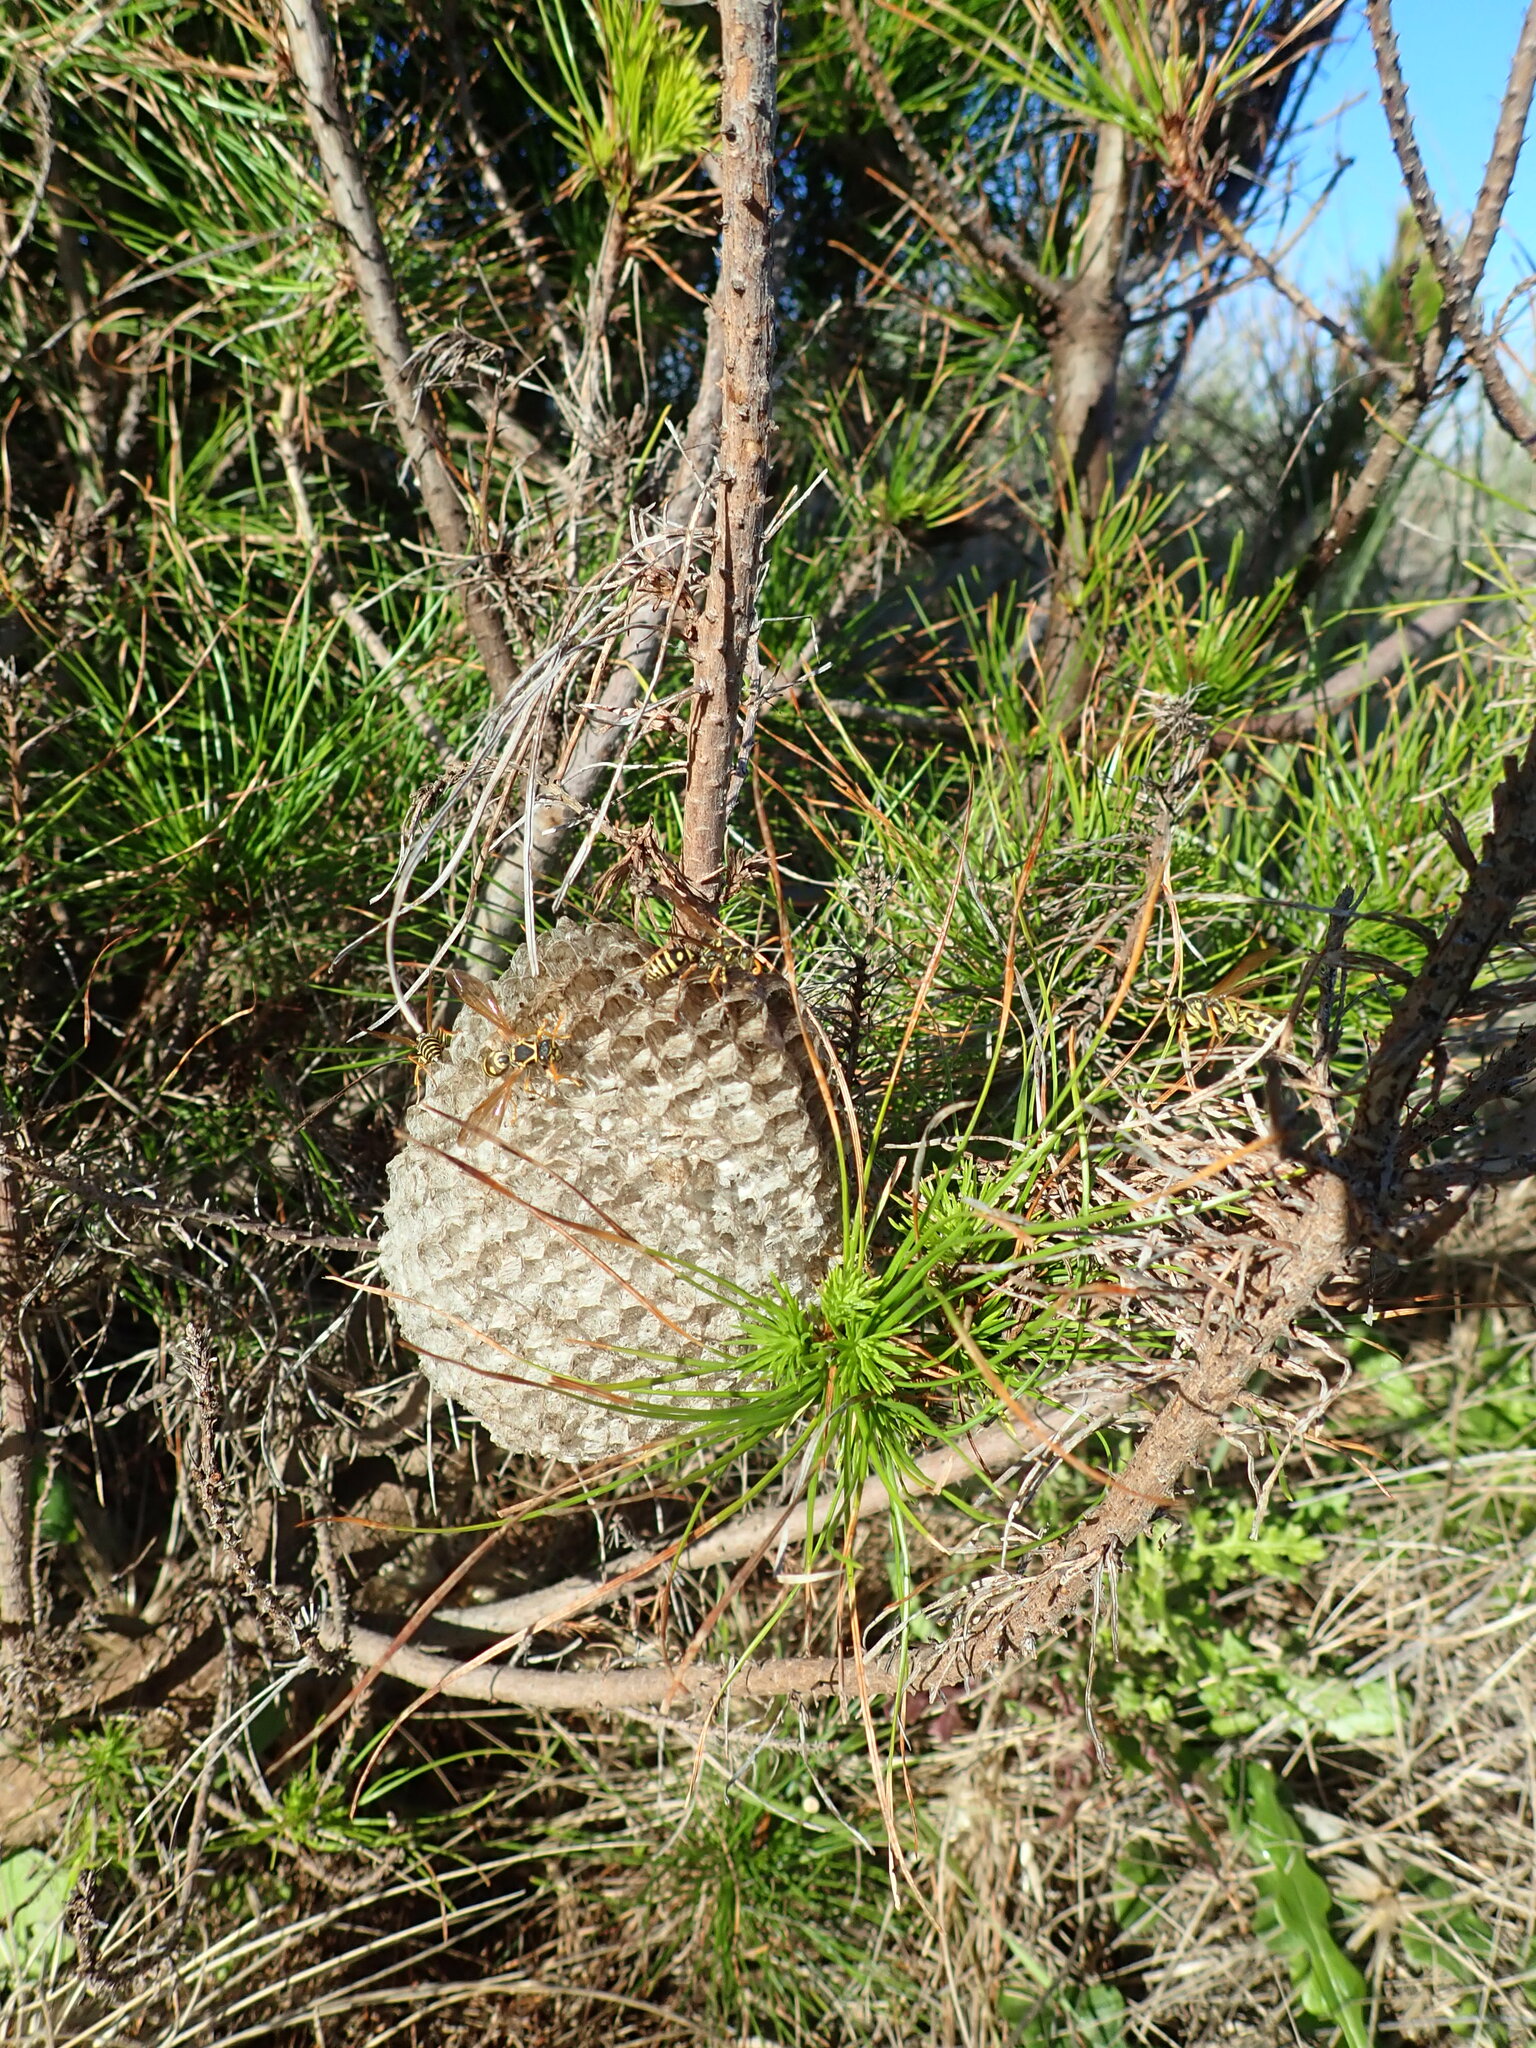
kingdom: Animalia
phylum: Arthropoda
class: Insecta
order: Hymenoptera
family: Eumenidae
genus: Polistes
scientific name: Polistes chinensis
